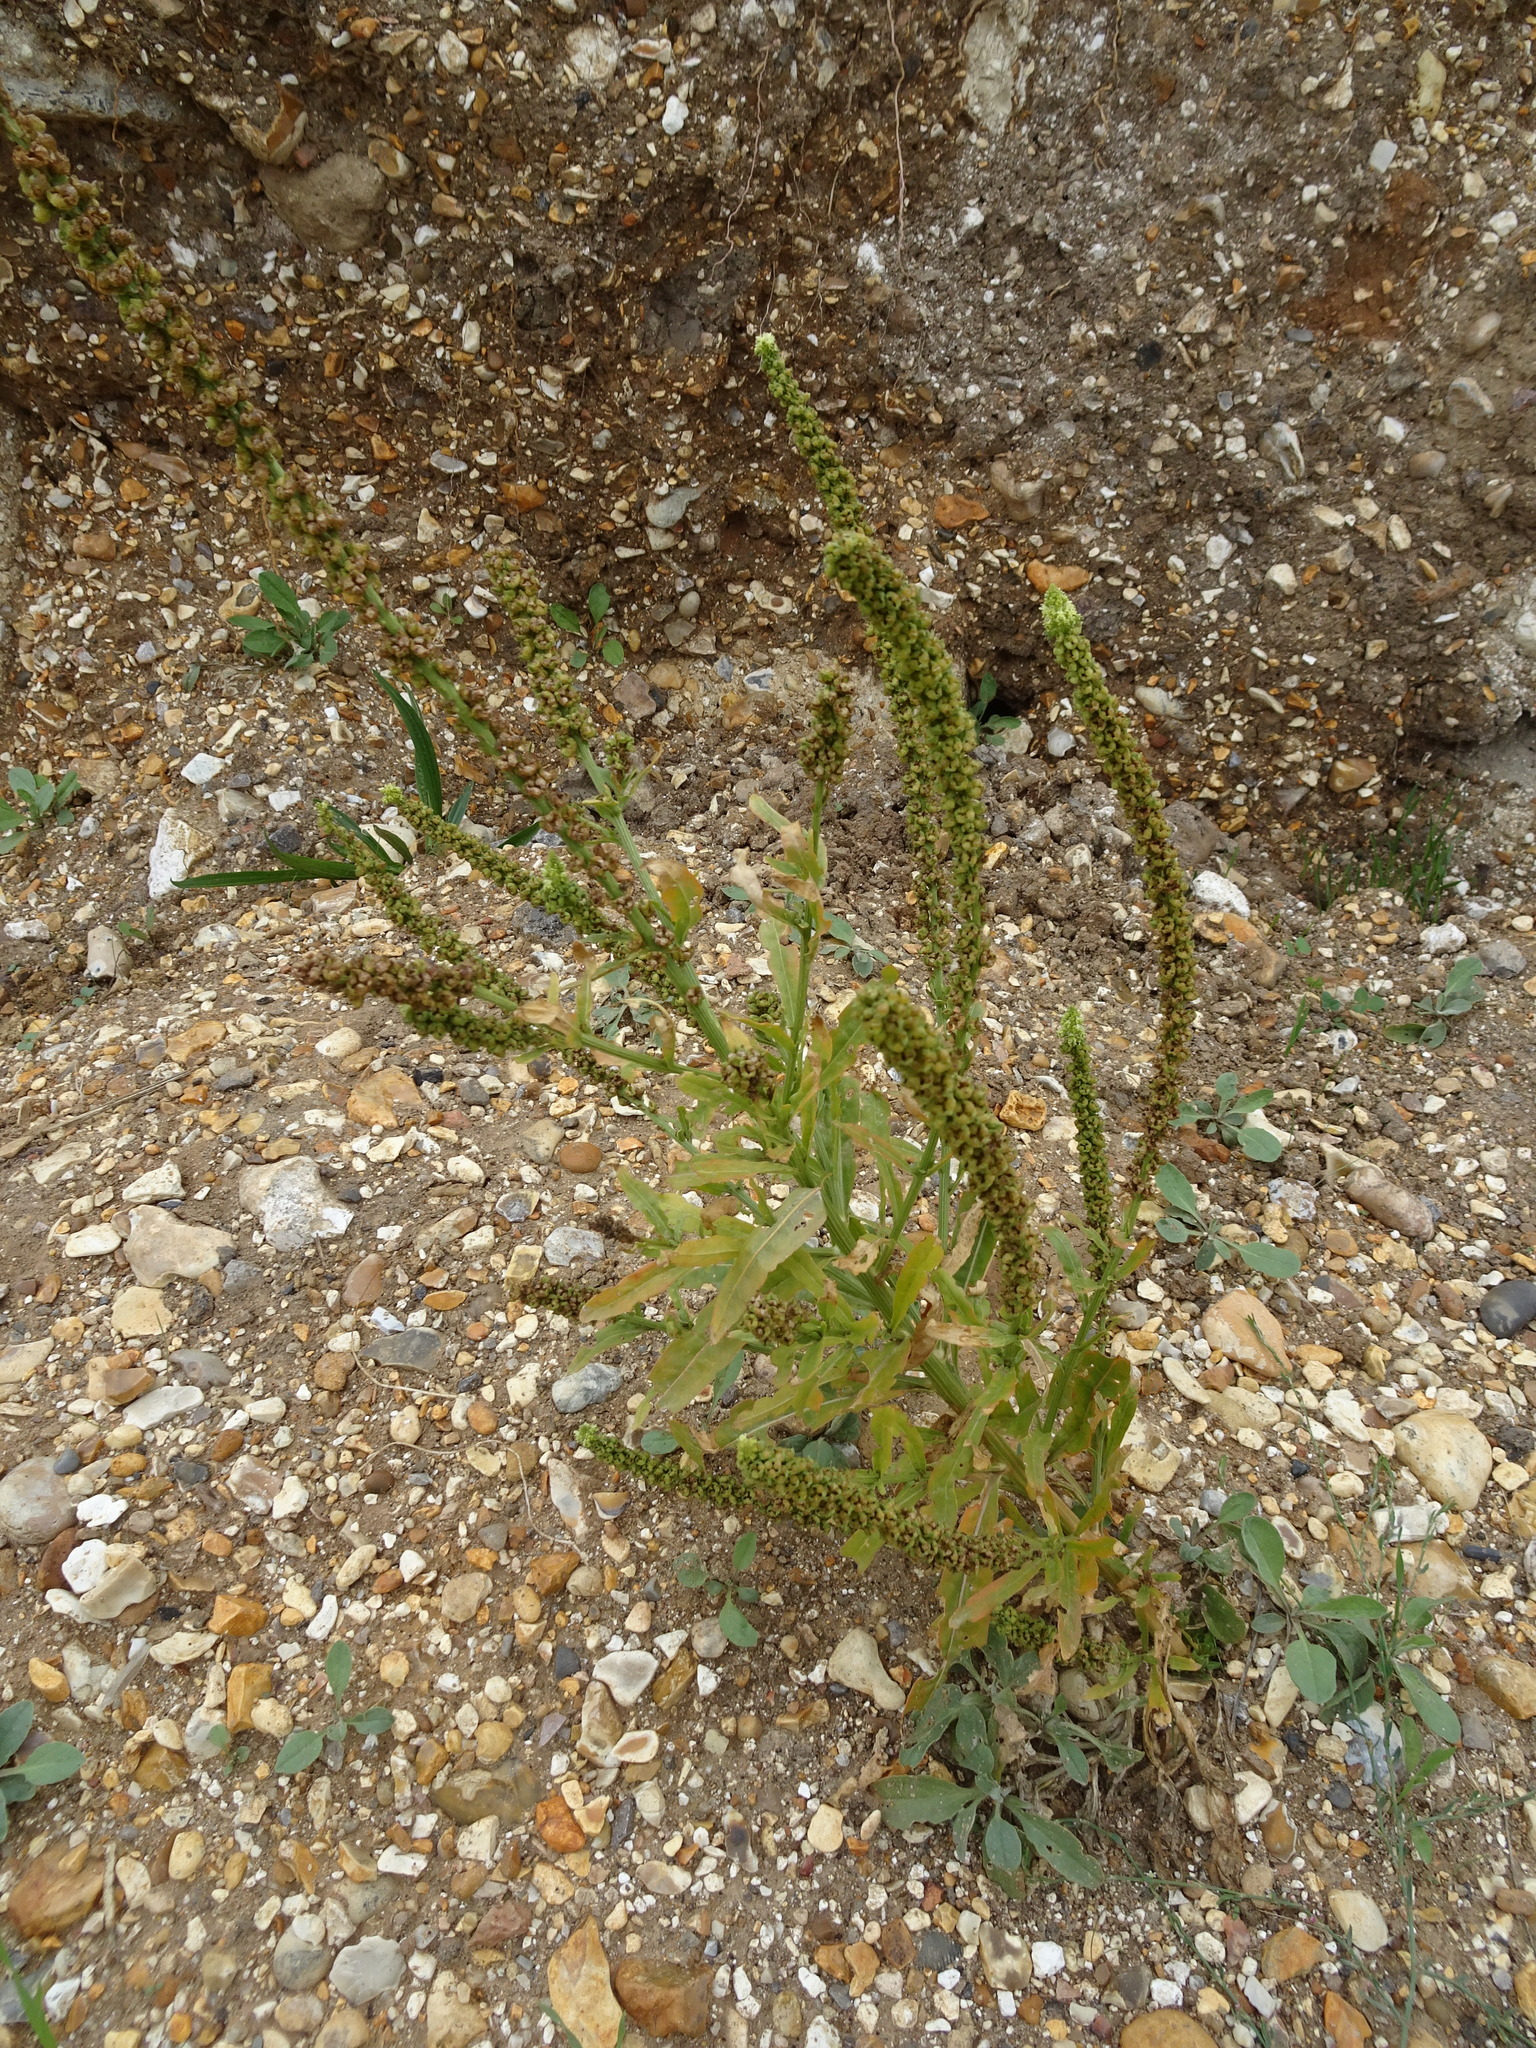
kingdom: Plantae
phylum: Tracheophyta
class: Magnoliopsida
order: Brassicales
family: Resedaceae
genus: Reseda
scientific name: Reseda luteola
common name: Weld
